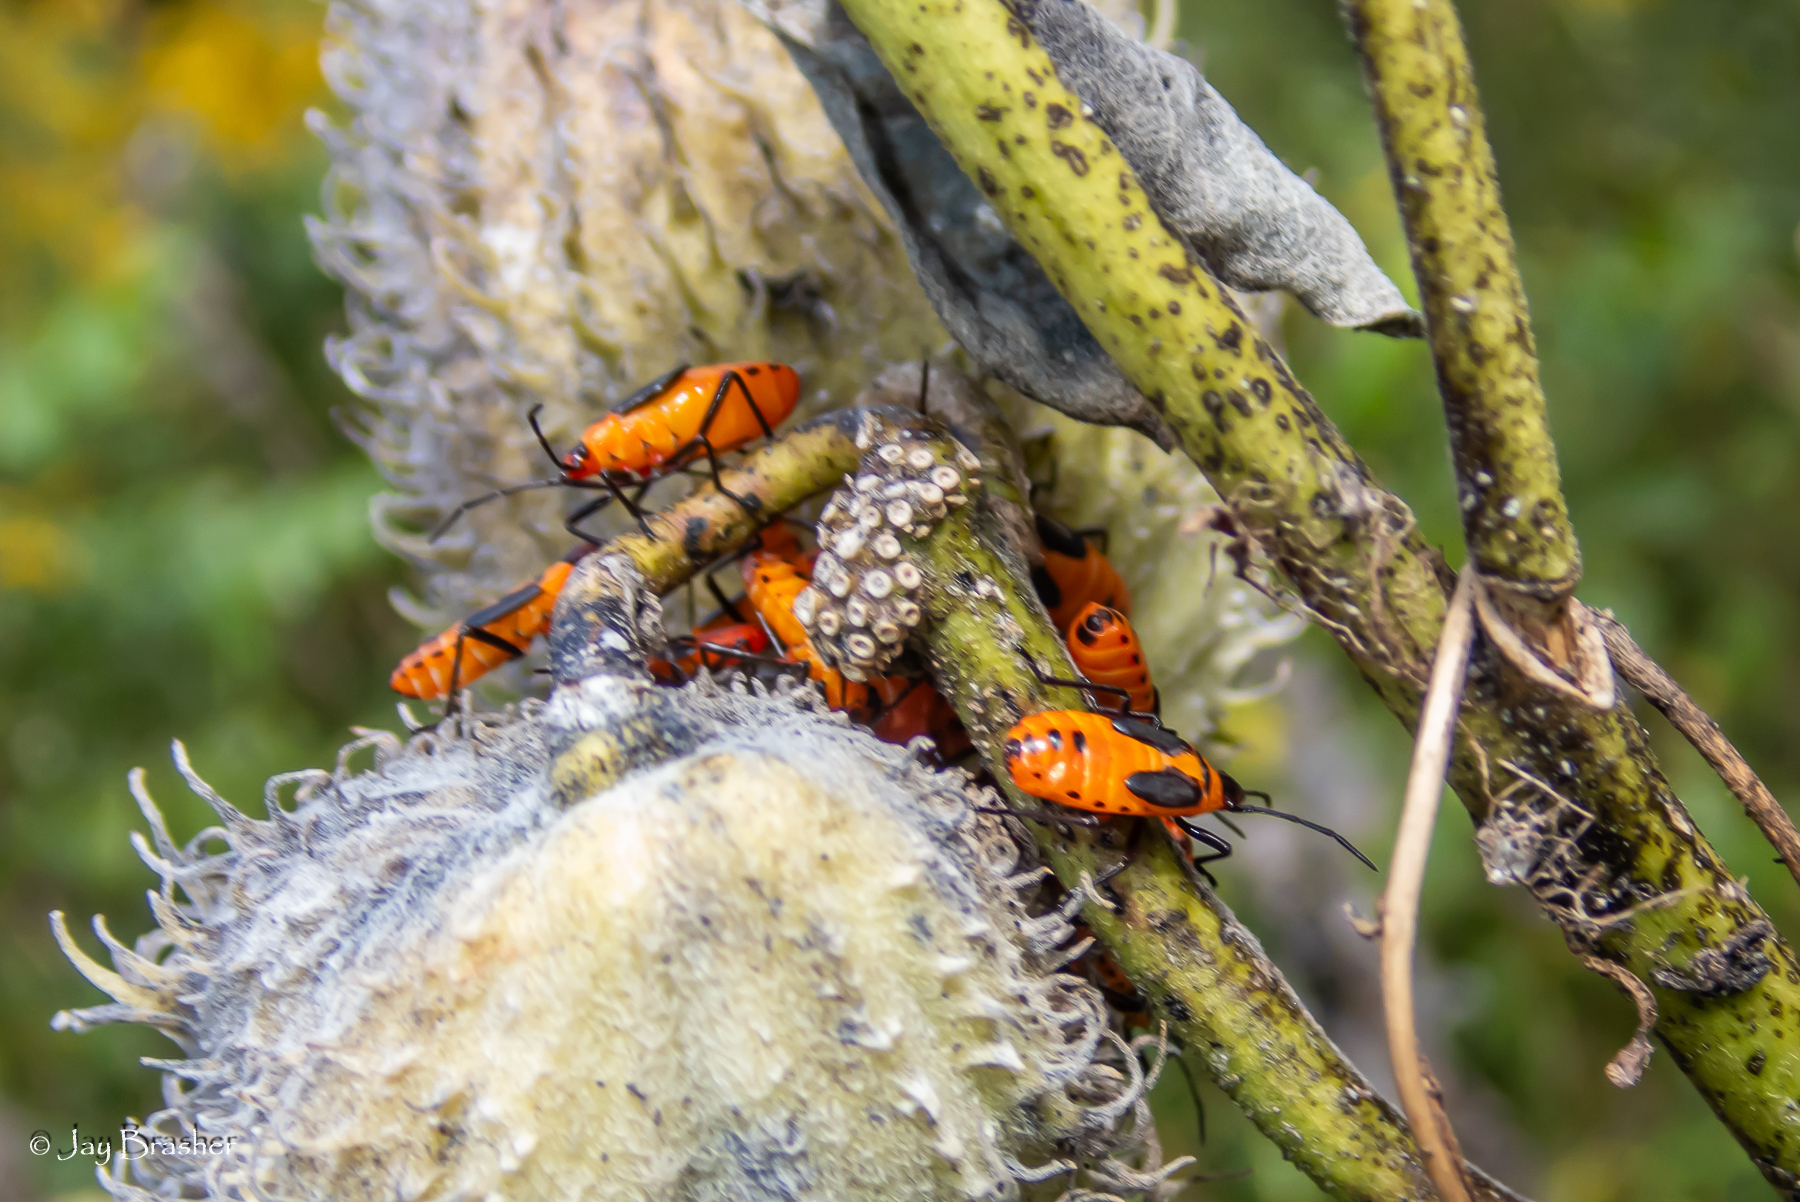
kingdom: Animalia
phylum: Arthropoda
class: Insecta
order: Hemiptera
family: Lygaeidae
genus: Oncopeltus
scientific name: Oncopeltus fasciatus
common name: Large milkweed bug
